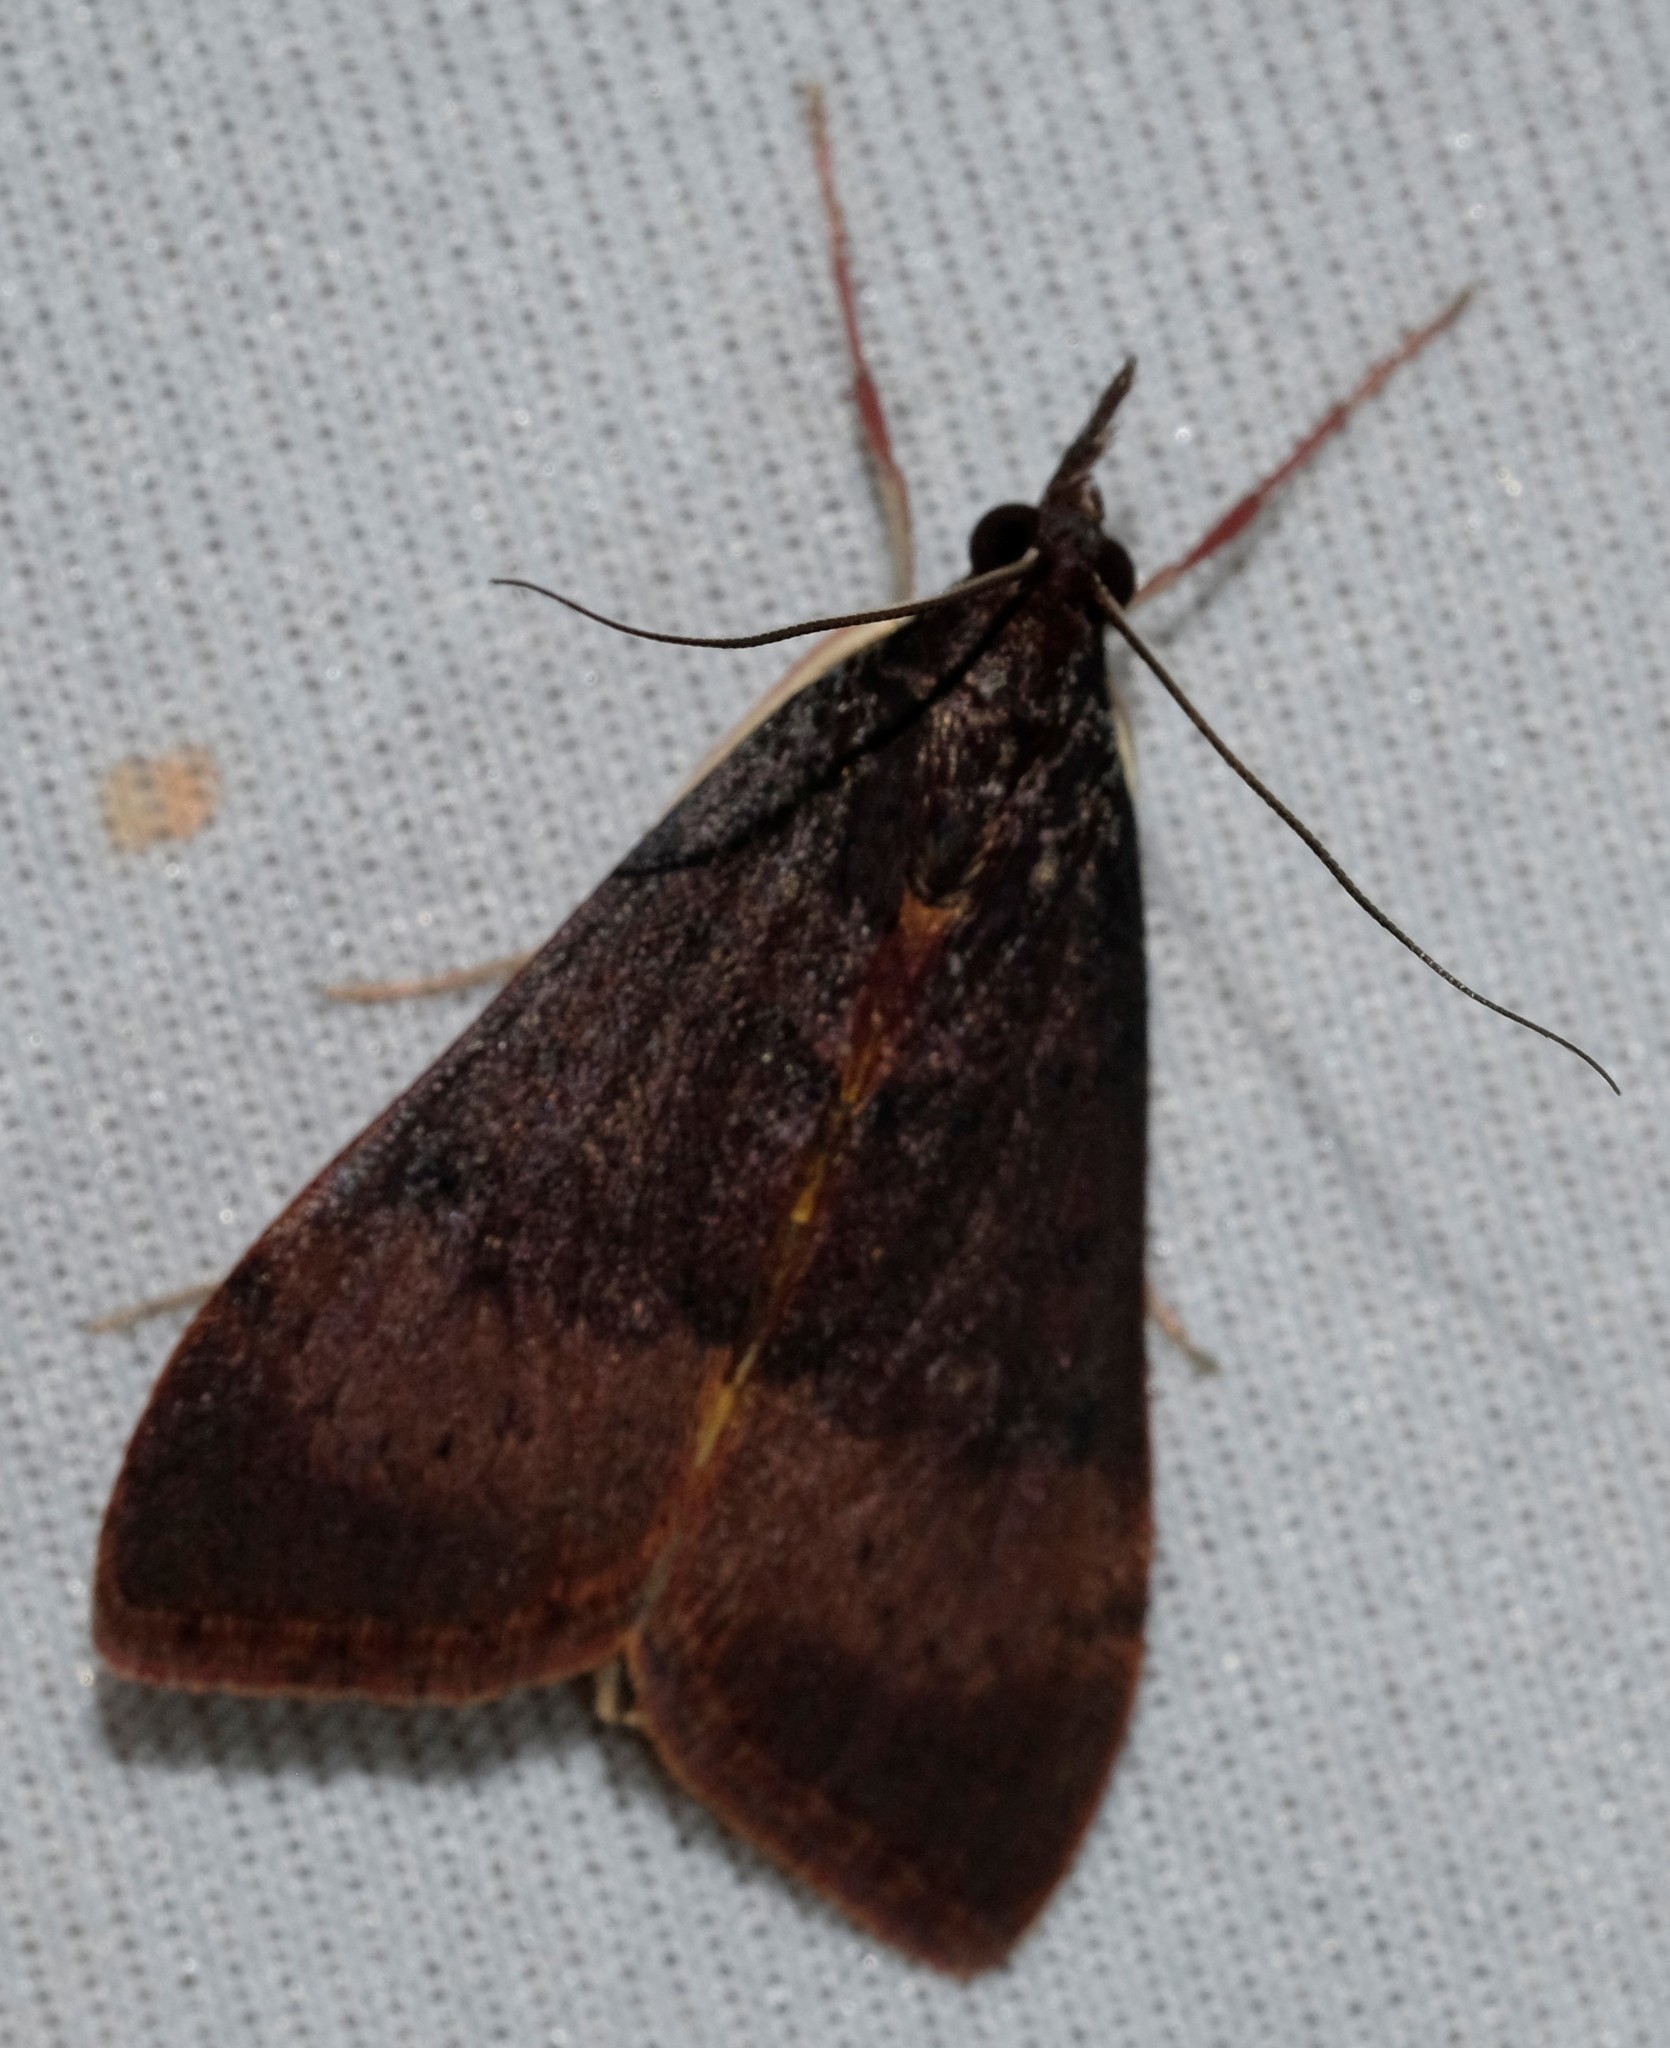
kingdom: Animalia
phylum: Arthropoda
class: Insecta
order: Lepidoptera
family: Crambidae
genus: Uresiphita
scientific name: Uresiphita ornithopteralis
